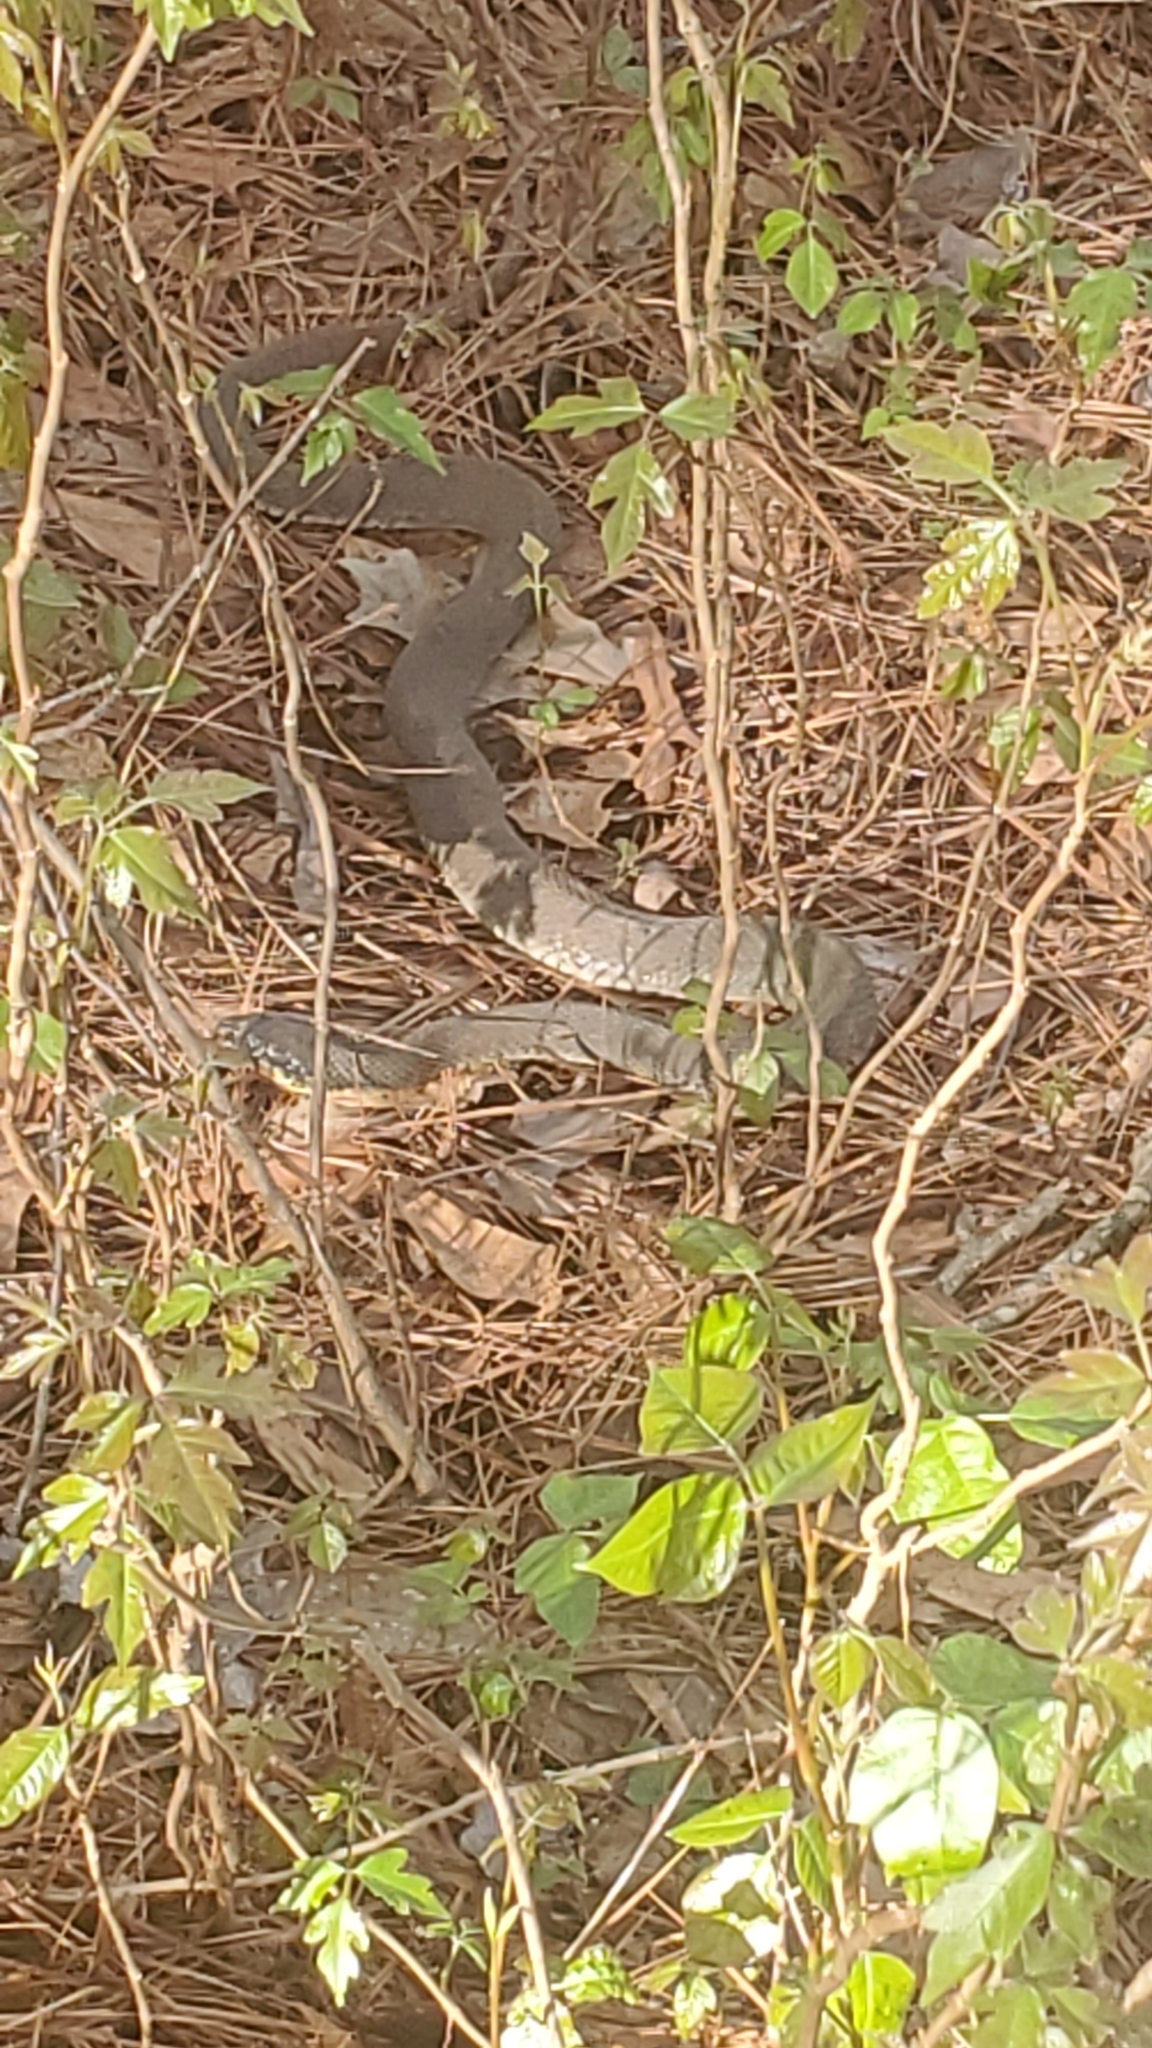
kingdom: Animalia
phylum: Chordata
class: Squamata
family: Colubridae
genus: Nerodia
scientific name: Nerodia erythrogaster
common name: Plainbelly water snake
